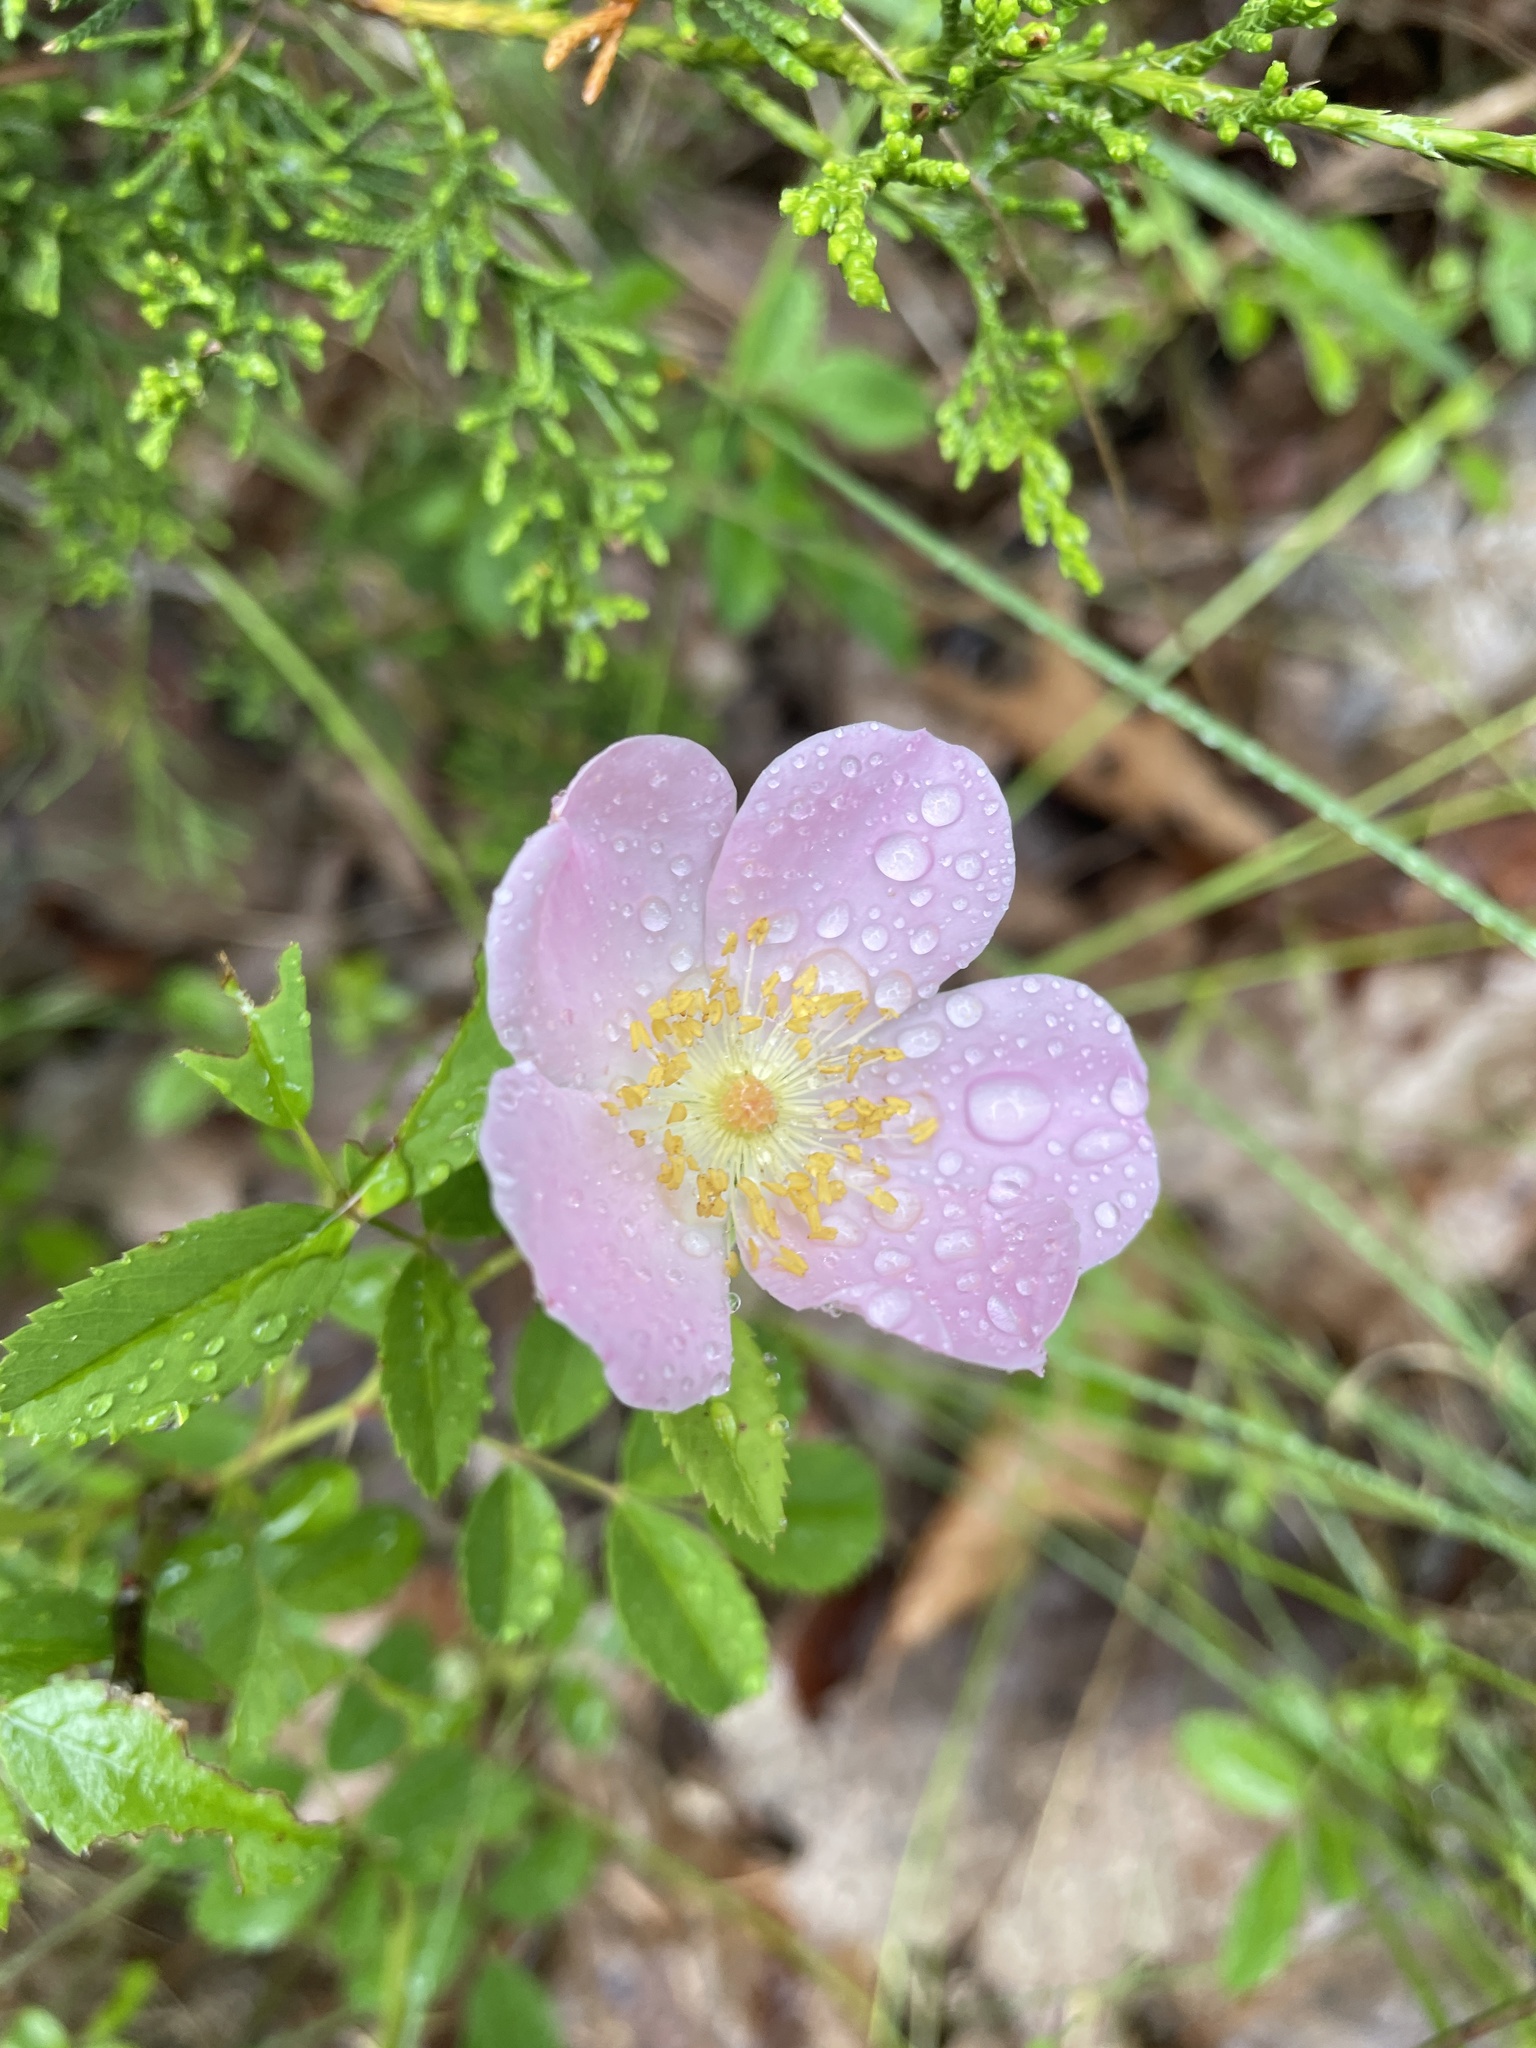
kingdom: Plantae
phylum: Tracheophyta
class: Magnoliopsida
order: Rosales
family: Rosaceae
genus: Rosa
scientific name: Rosa carolina
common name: Pasture rose
